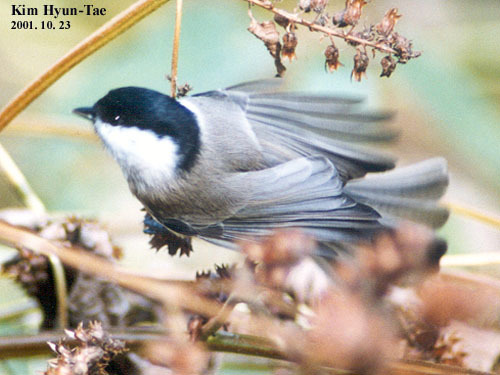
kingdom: Animalia
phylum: Chordata
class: Aves
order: Passeriformes
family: Paridae
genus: Poecile
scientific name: Poecile palustris
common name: Marsh tit
